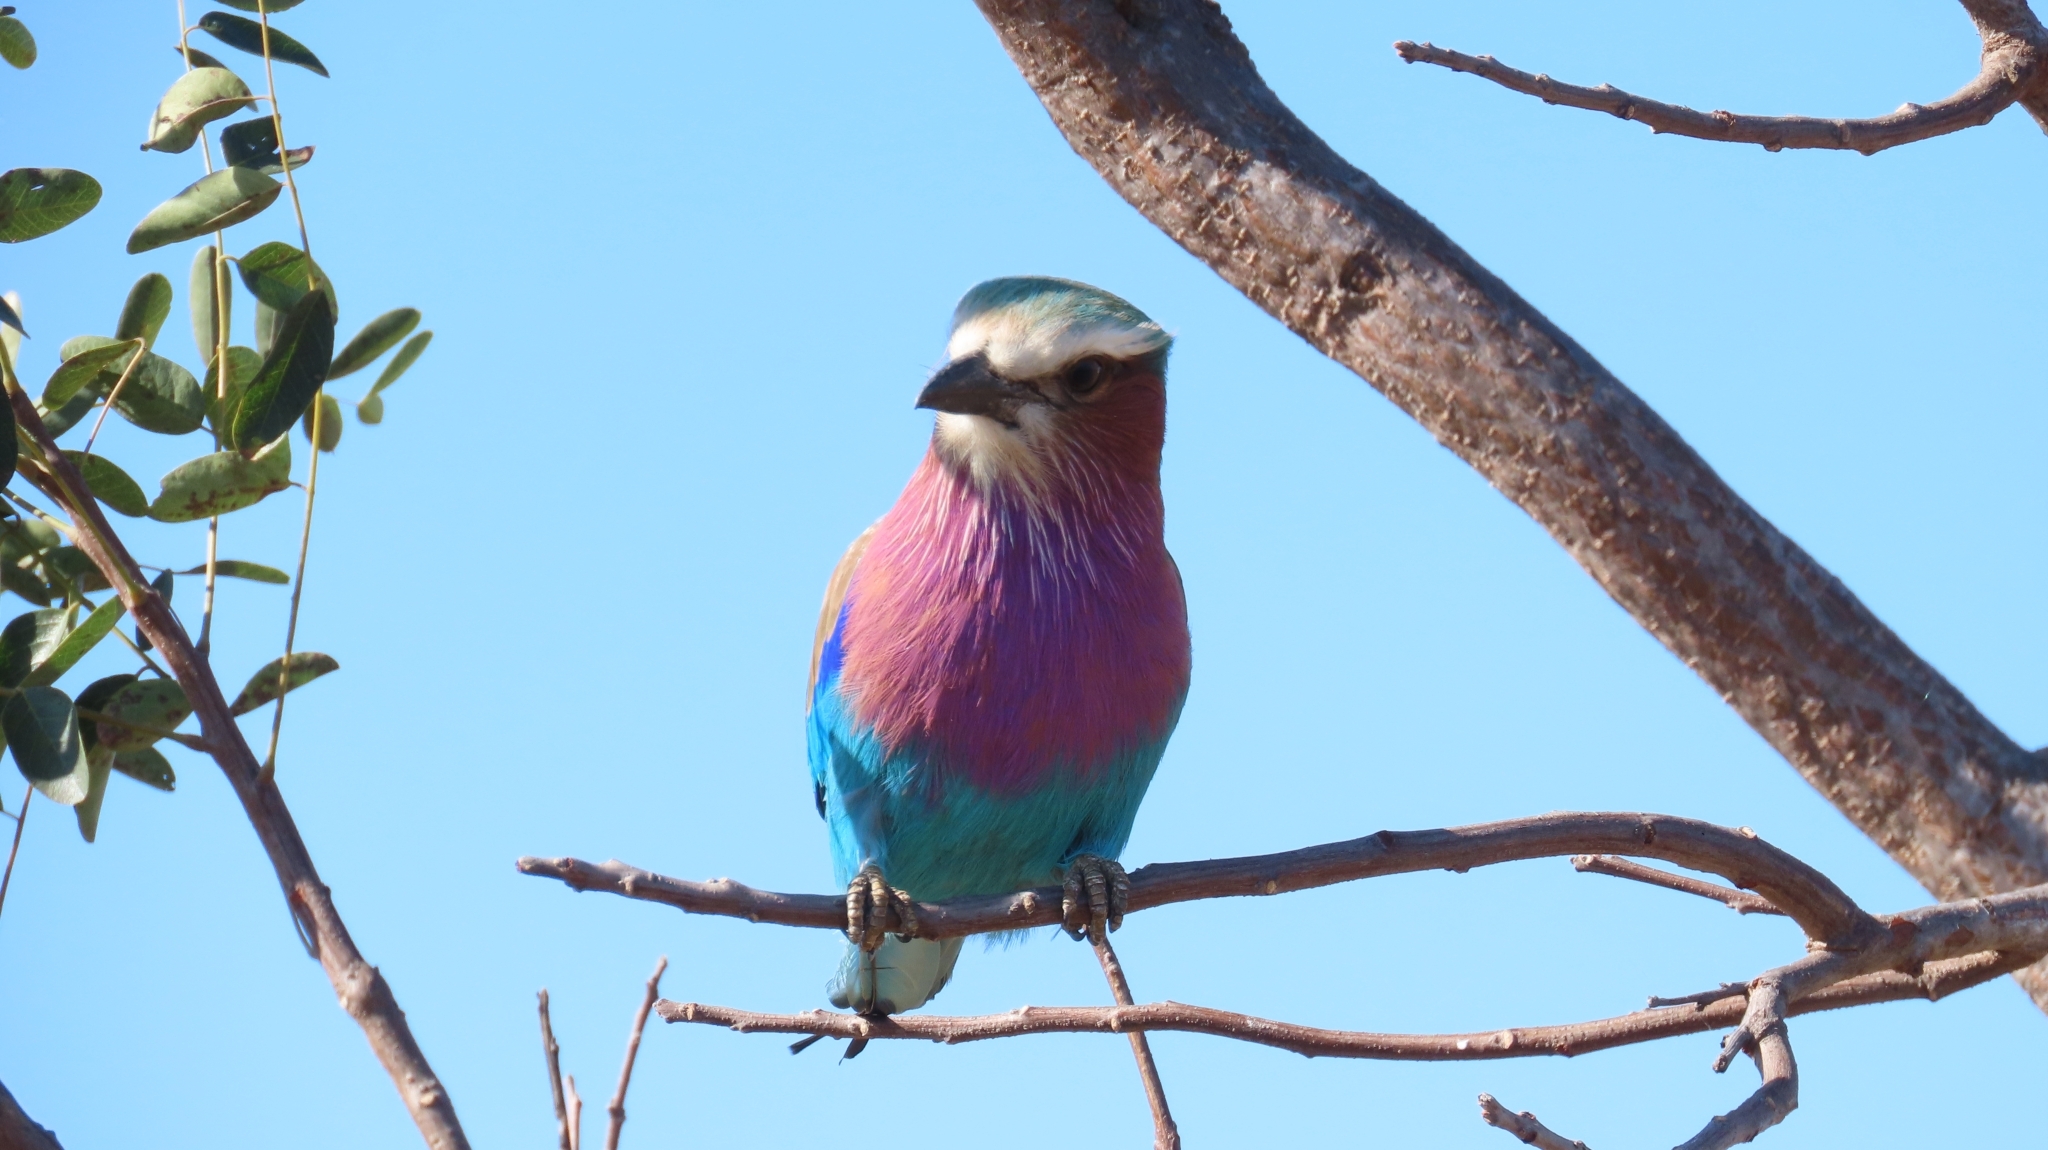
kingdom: Animalia
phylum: Chordata
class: Aves
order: Coraciiformes
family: Coraciidae
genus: Coracias
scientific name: Coracias caudatus
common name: Lilac-breasted roller
